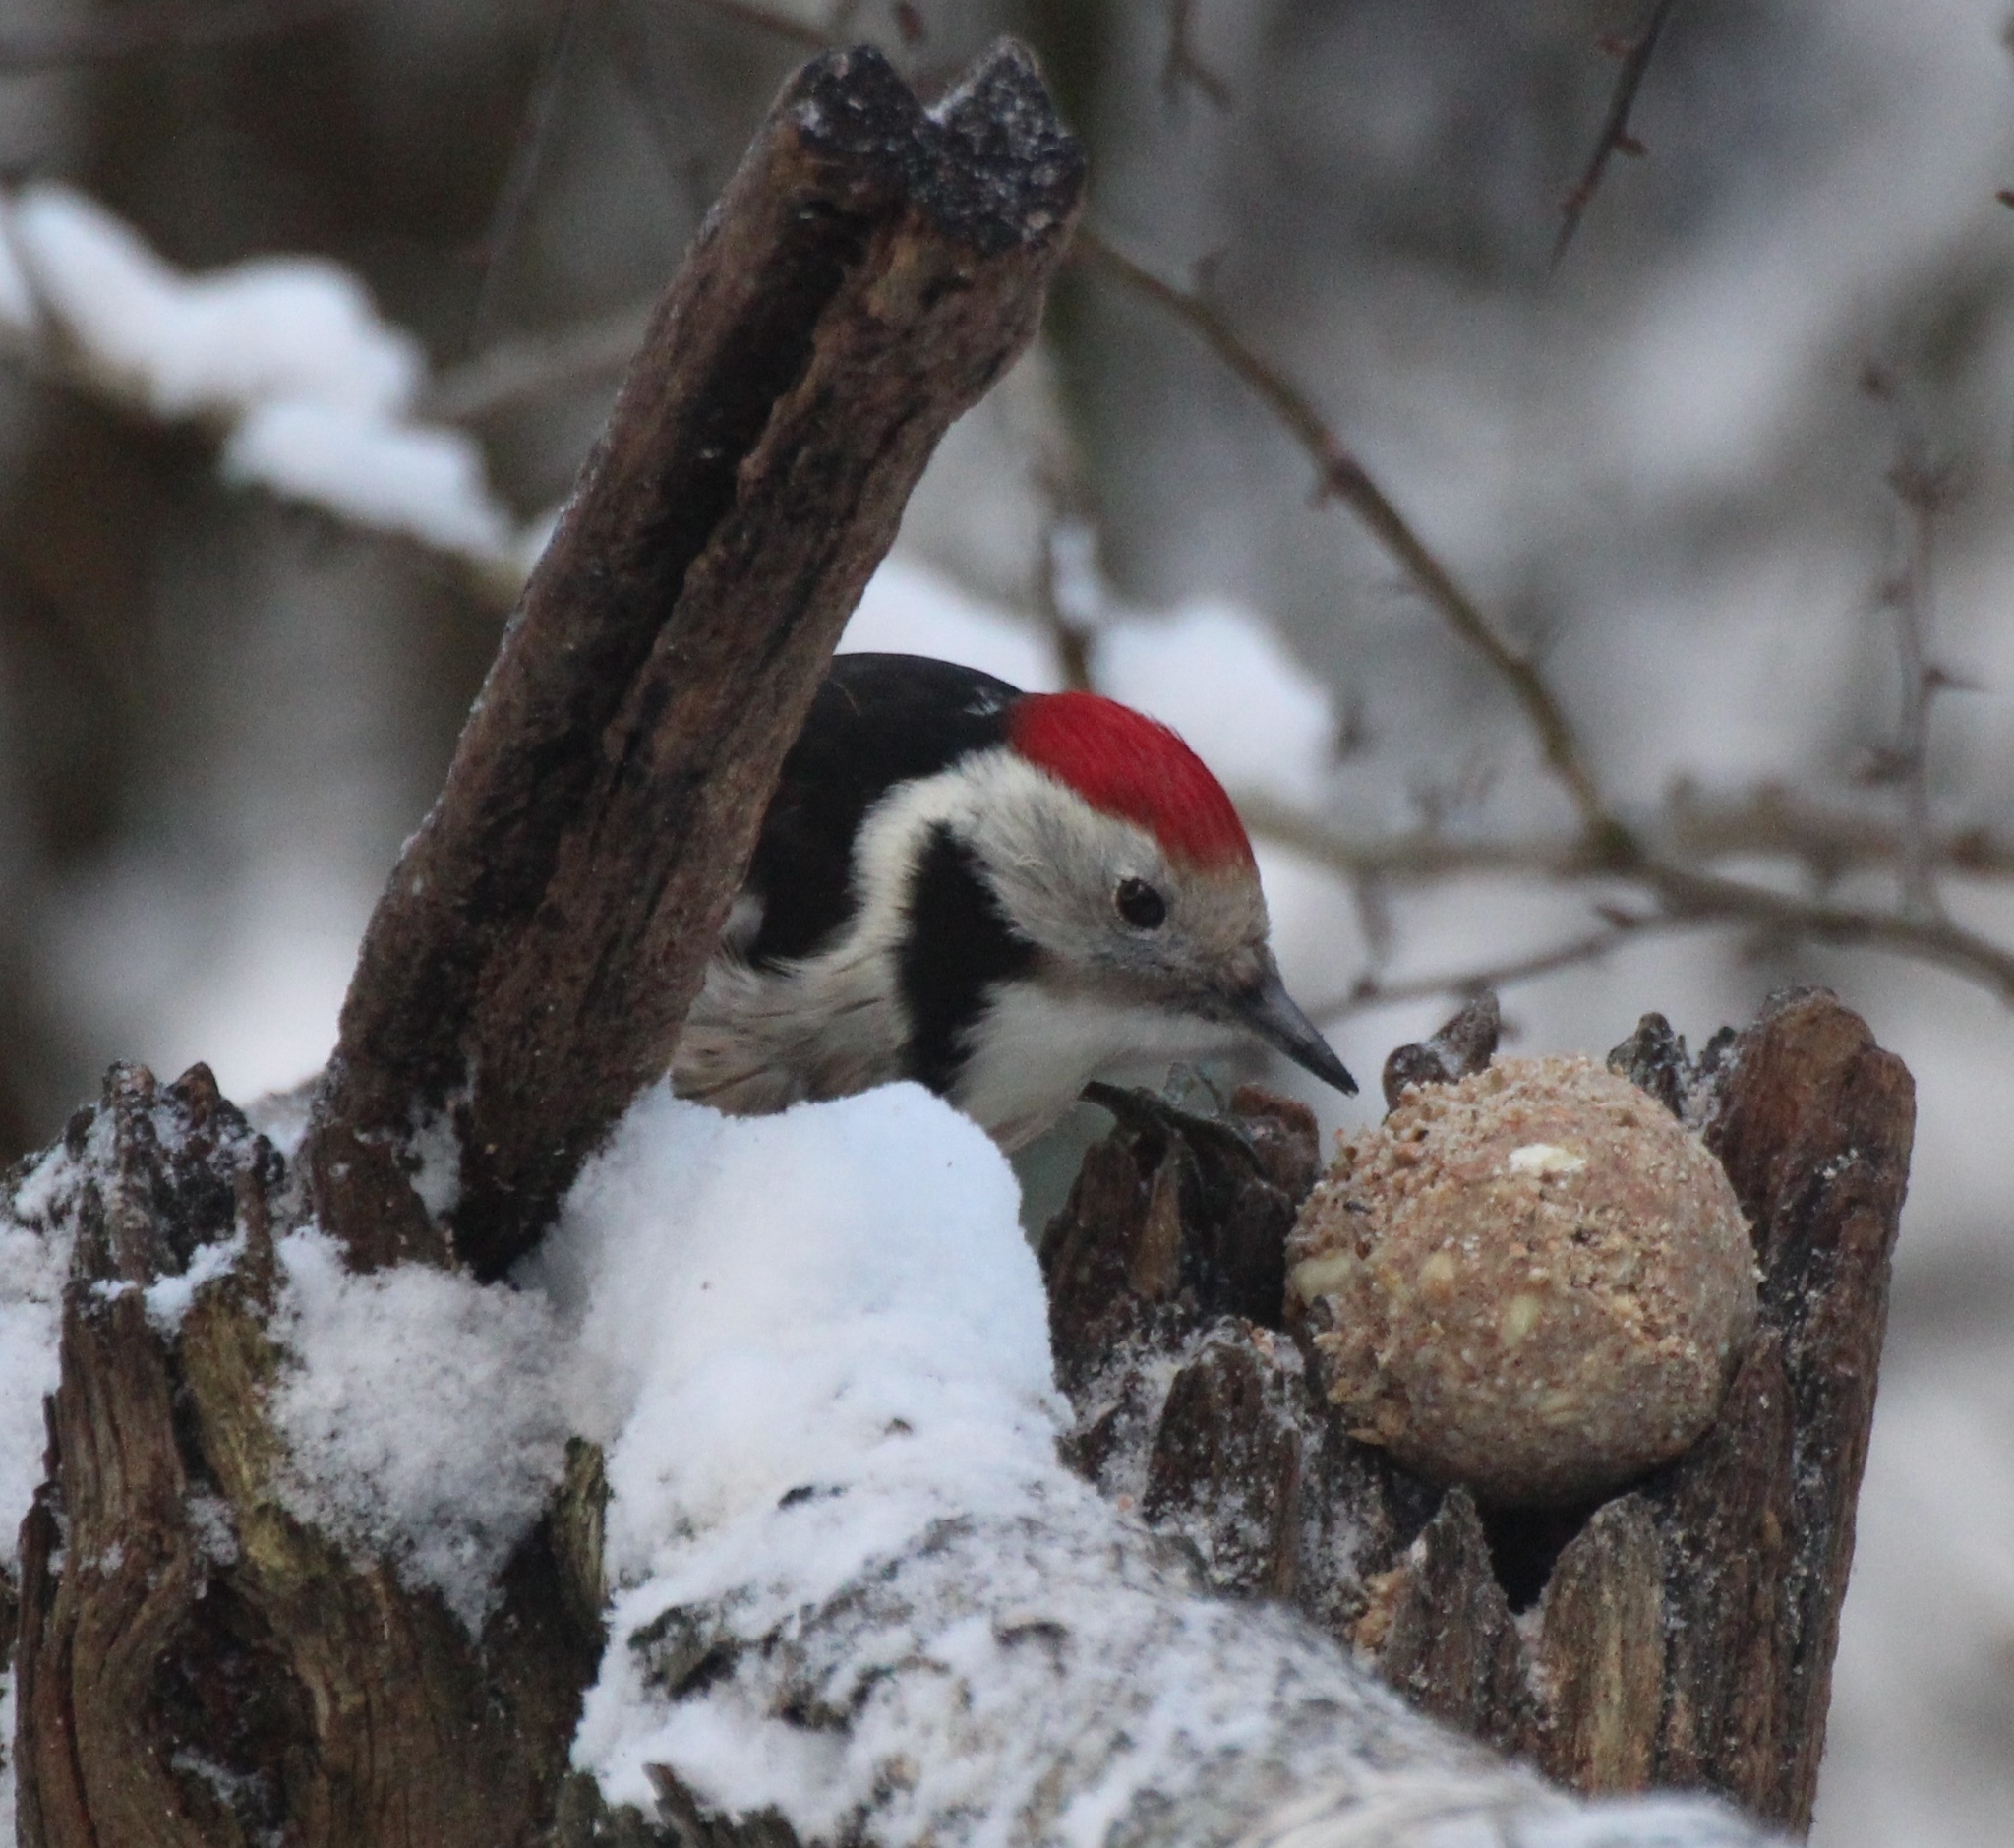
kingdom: Animalia
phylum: Chordata
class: Aves
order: Piciformes
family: Picidae
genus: Dendrocoptes
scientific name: Dendrocoptes medius
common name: Middle spotted woodpecker
